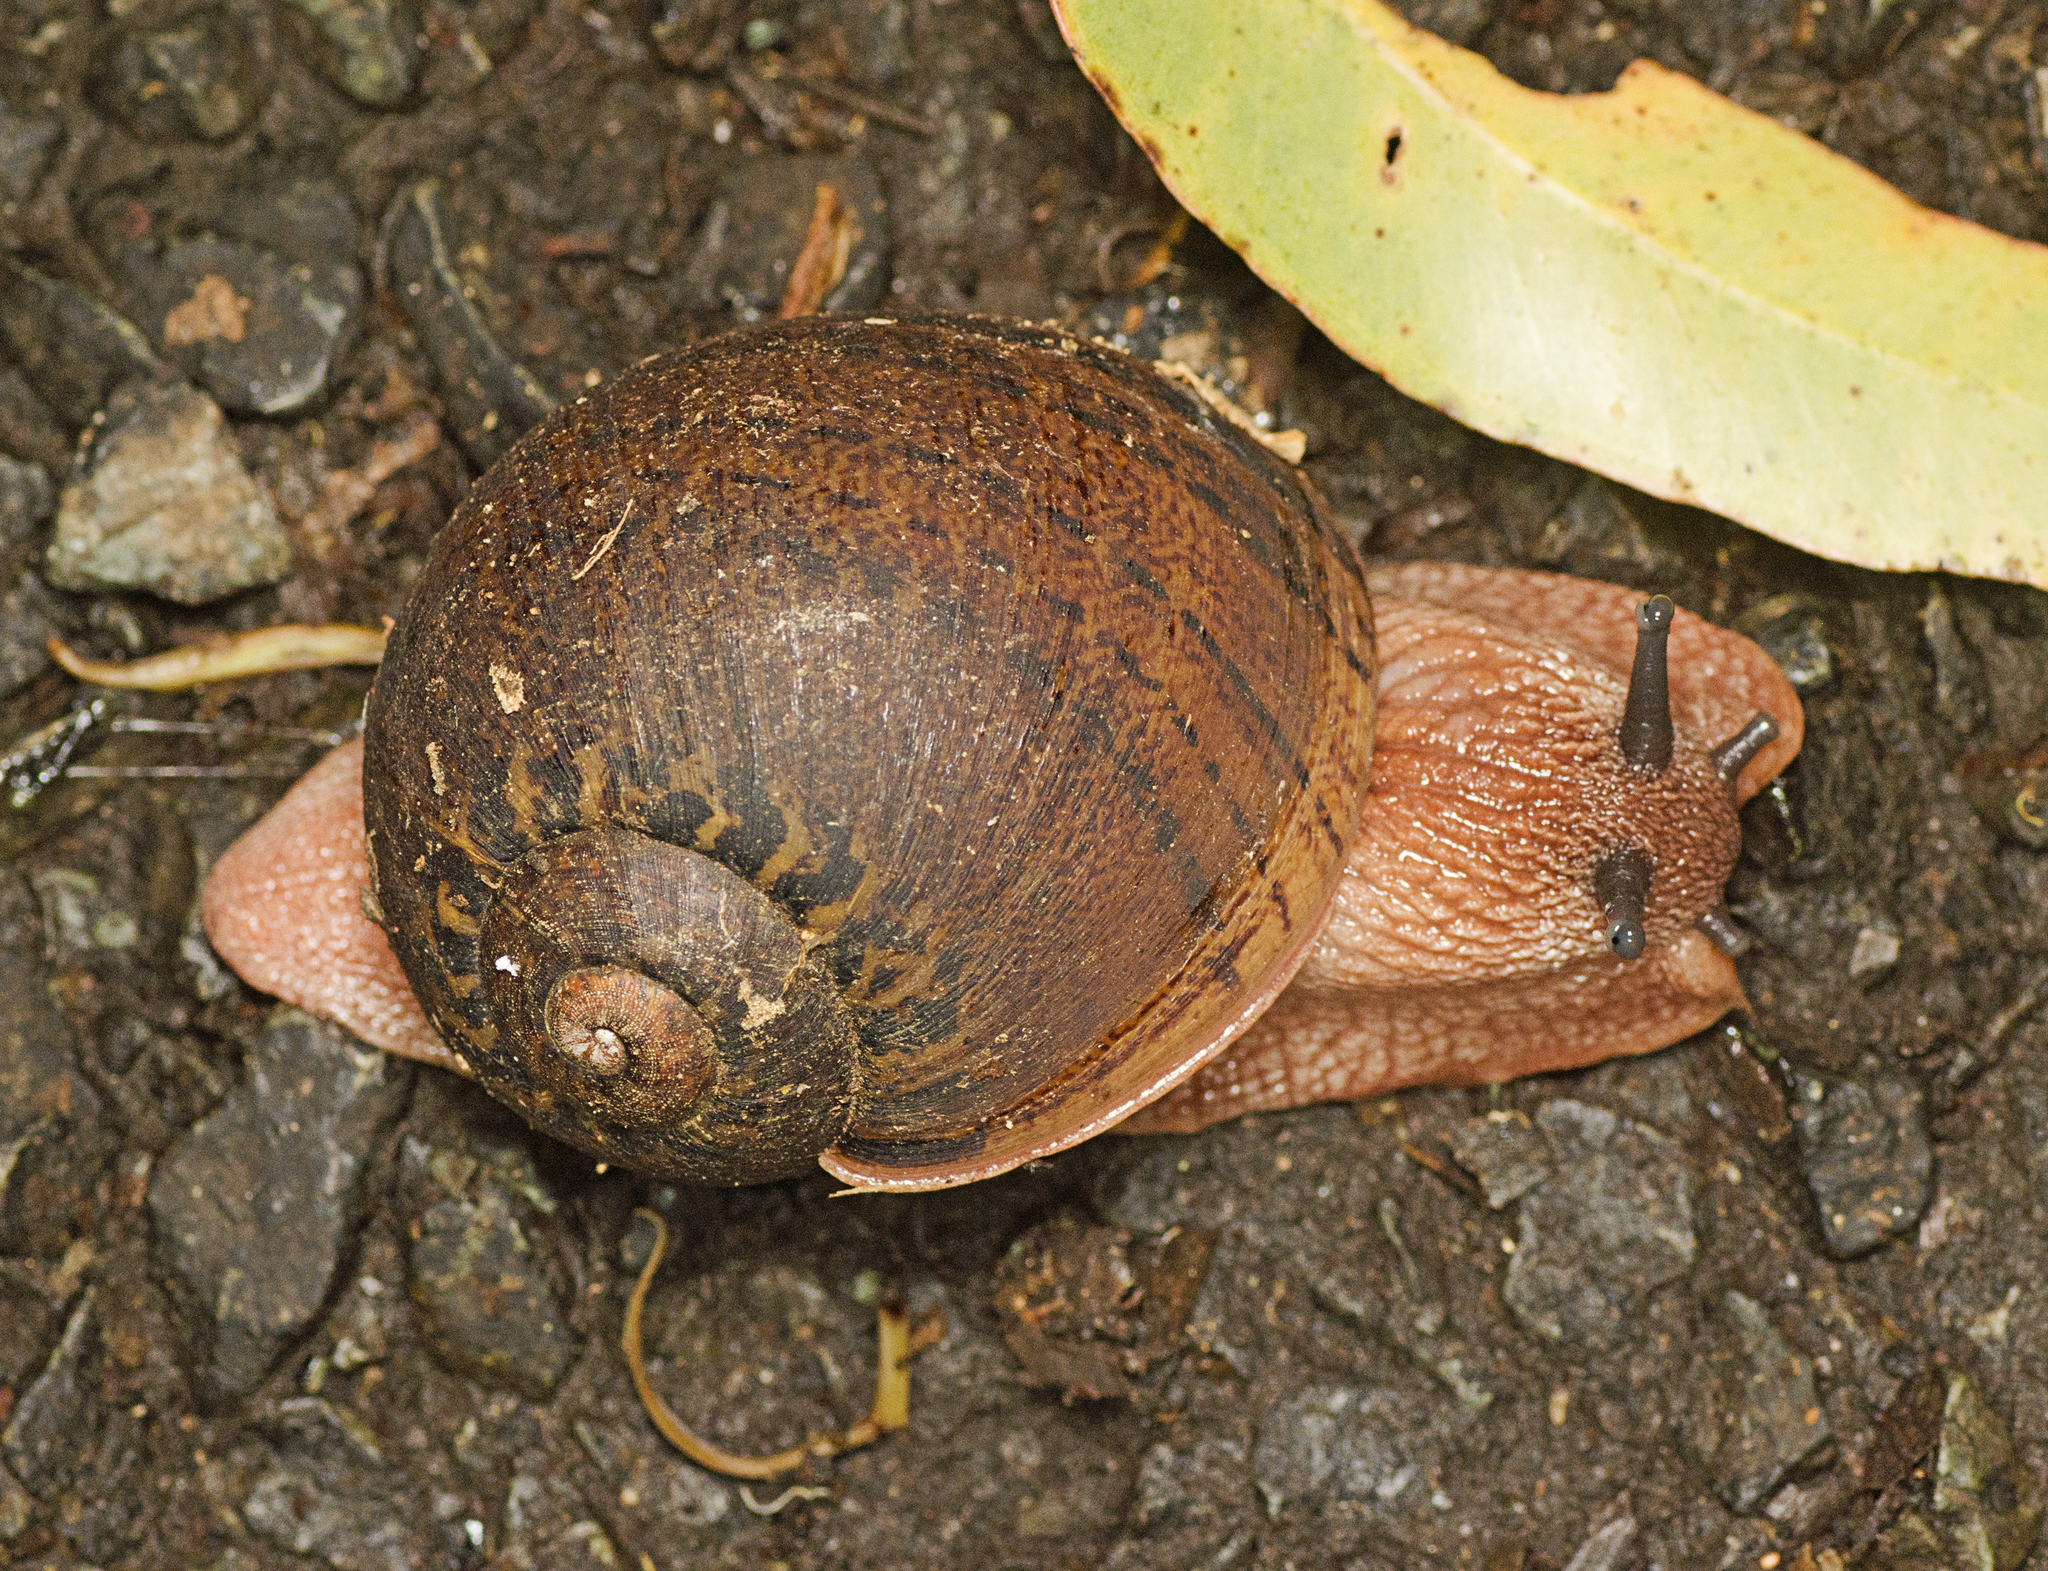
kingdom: Animalia
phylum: Mollusca
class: Gastropoda
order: Stylommatophora
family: Caryodidae
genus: Hedleyella
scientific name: Hedleyella falconeri
